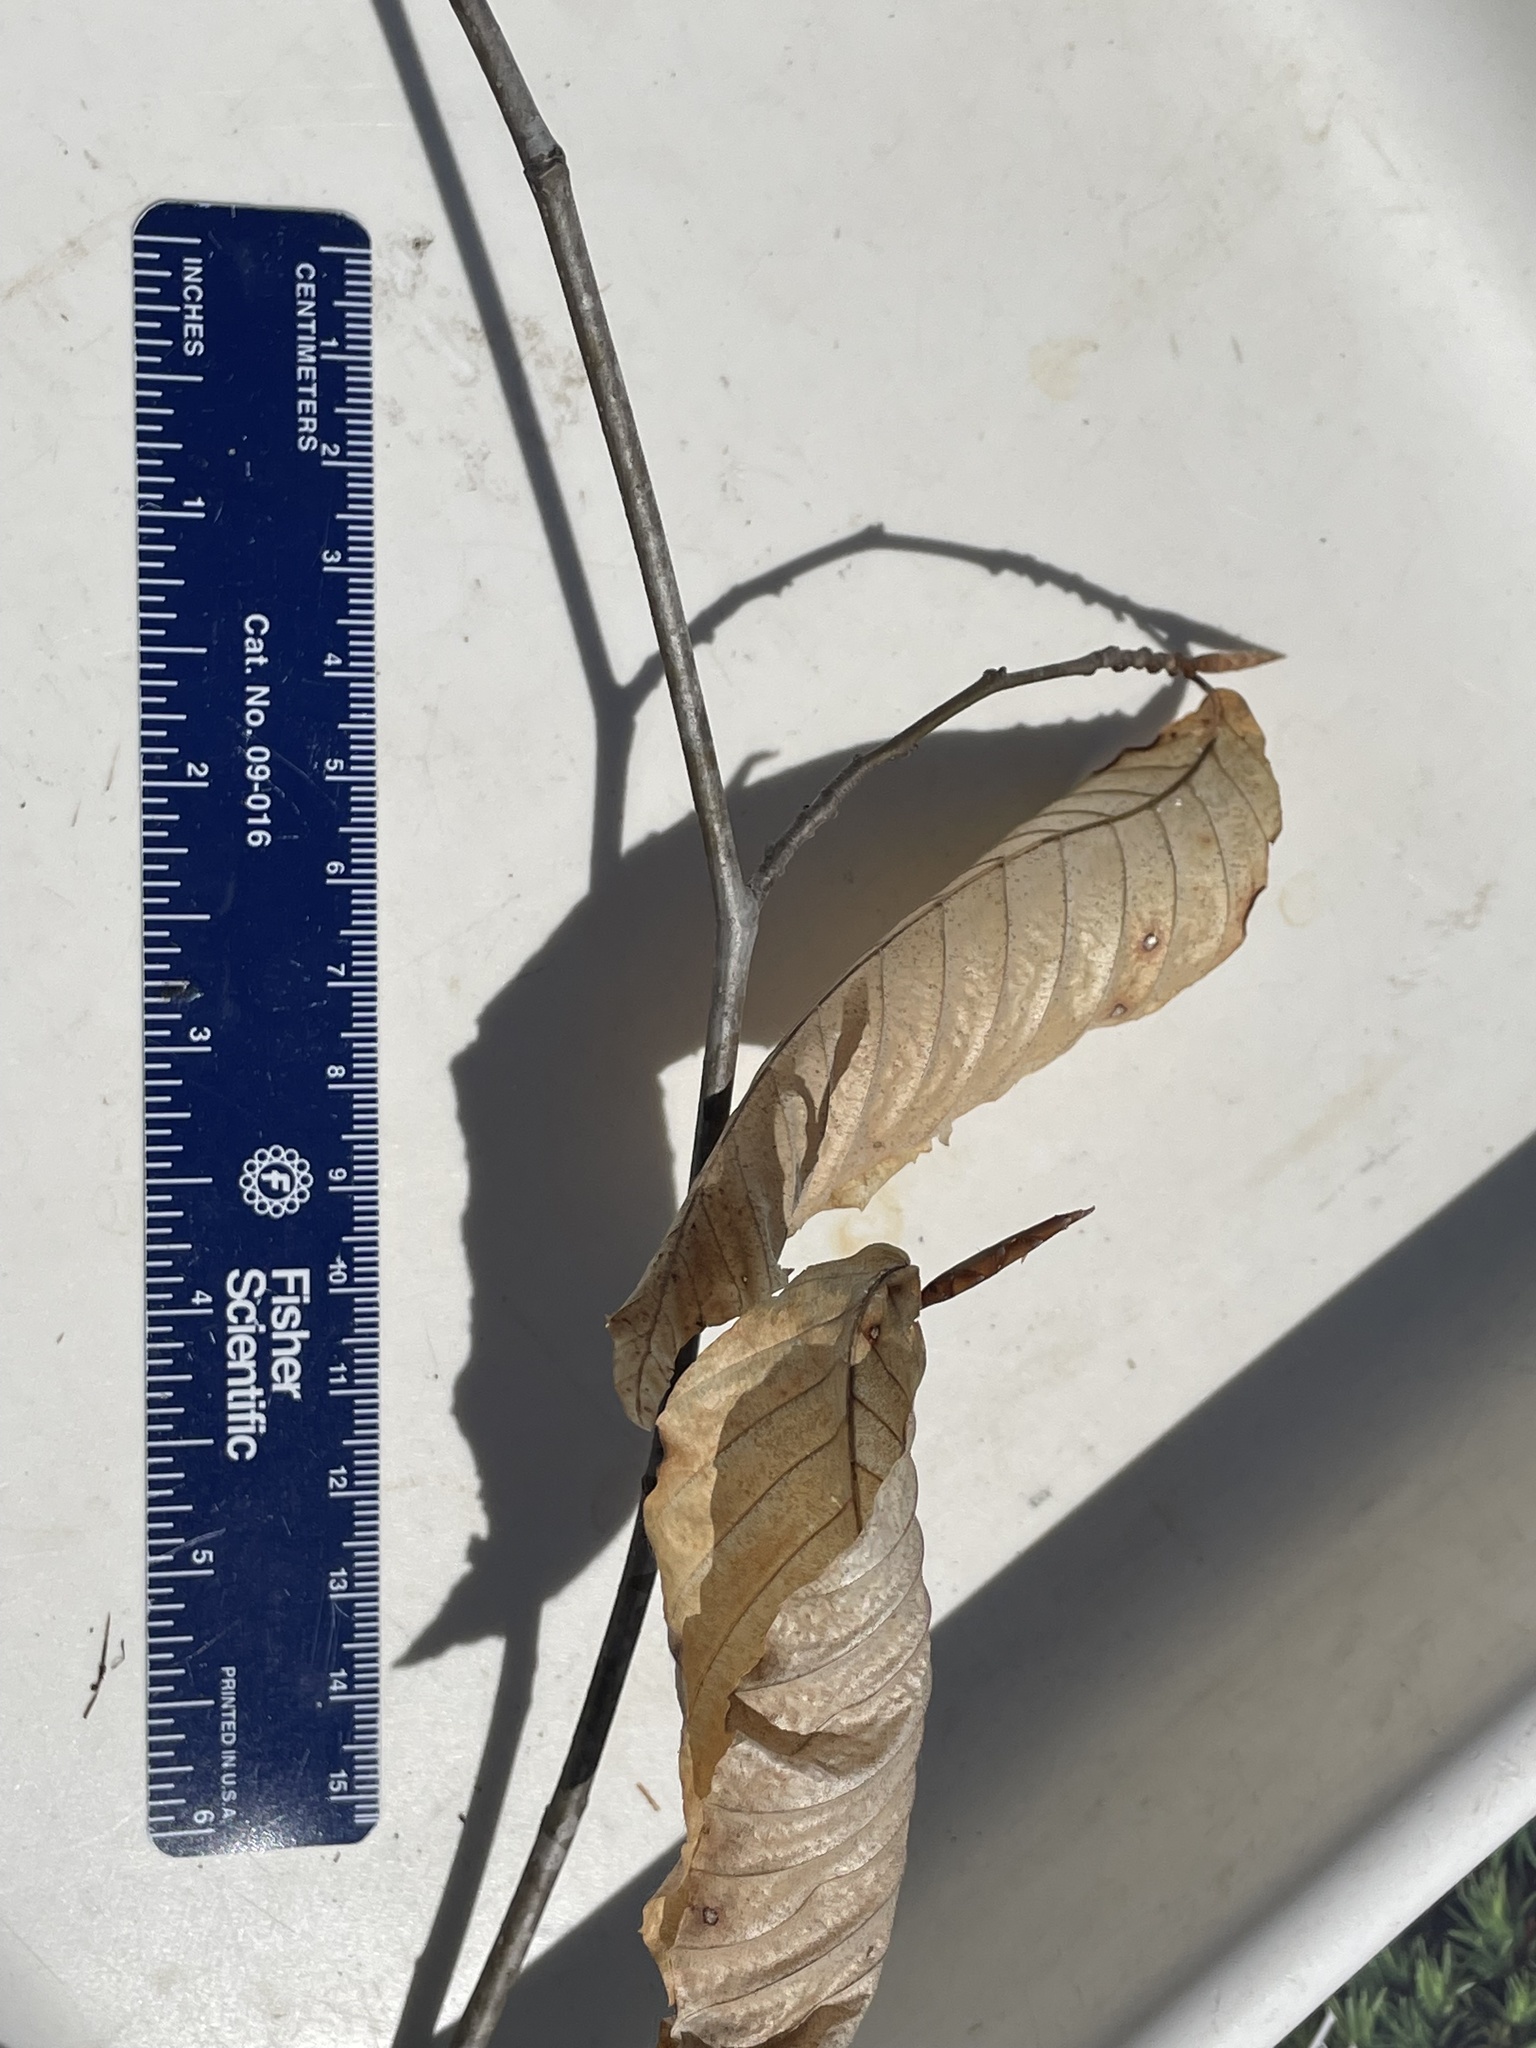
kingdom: Plantae
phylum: Tracheophyta
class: Magnoliopsida
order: Fagales
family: Fagaceae
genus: Fagus
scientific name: Fagus grandifolia
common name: American beech
